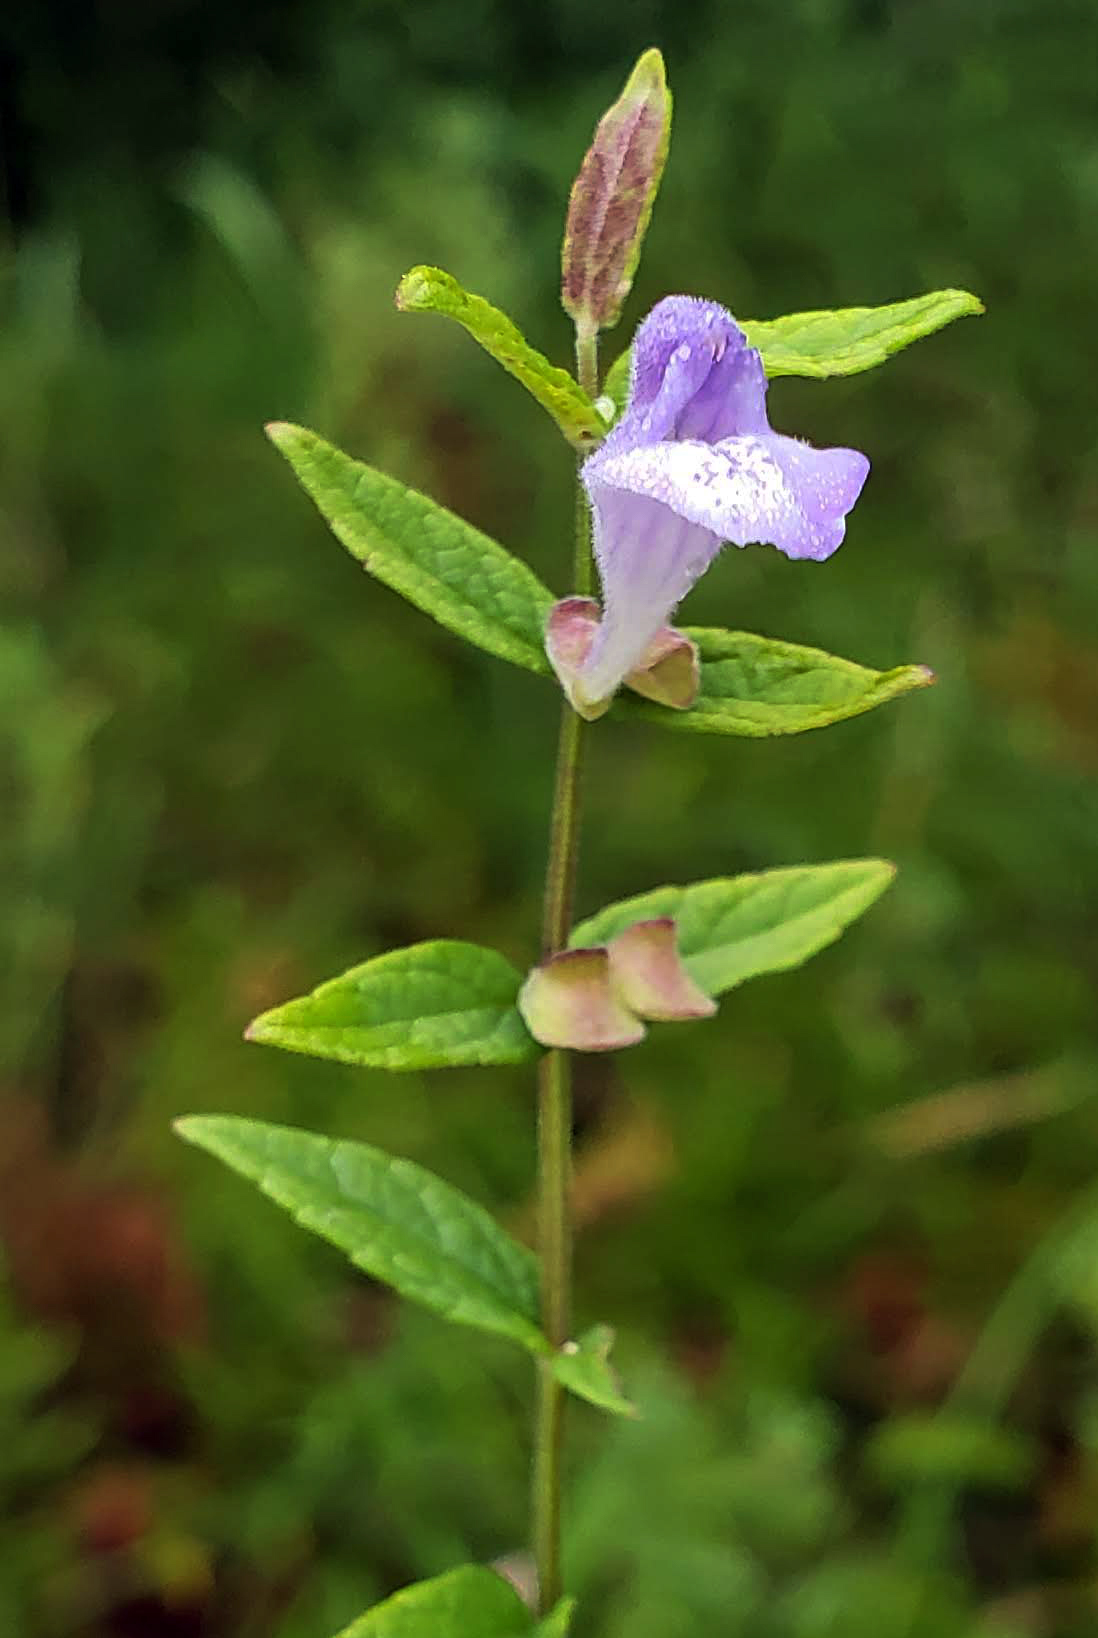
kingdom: Plantae
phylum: Tracheophyta
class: Magnoliopsida
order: Lamiales
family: Lamiaceae
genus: Scutellaria
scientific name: Scutellaria galericulata
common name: Skullcap
